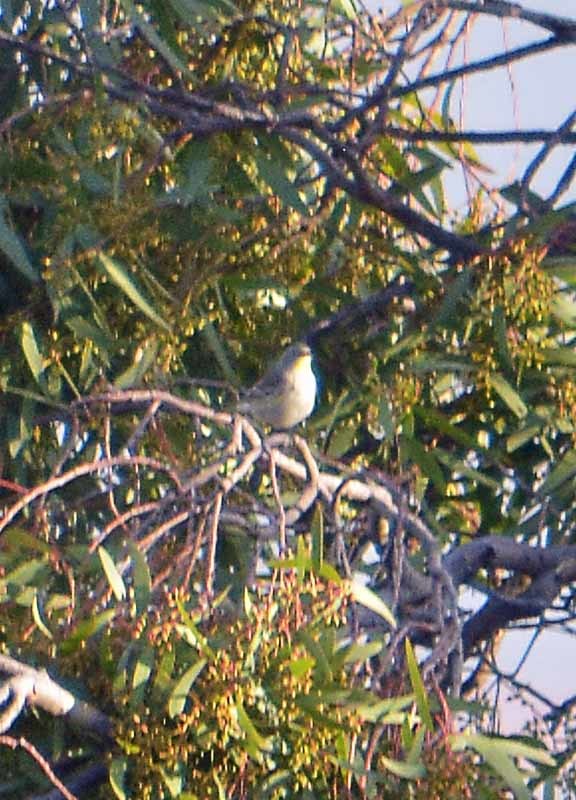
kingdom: Animalia
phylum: Chordata
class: Aves
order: Passeriformes
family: Mimidae
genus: Mimus
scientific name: Mimus polyglottos
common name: Northern mockingbird
